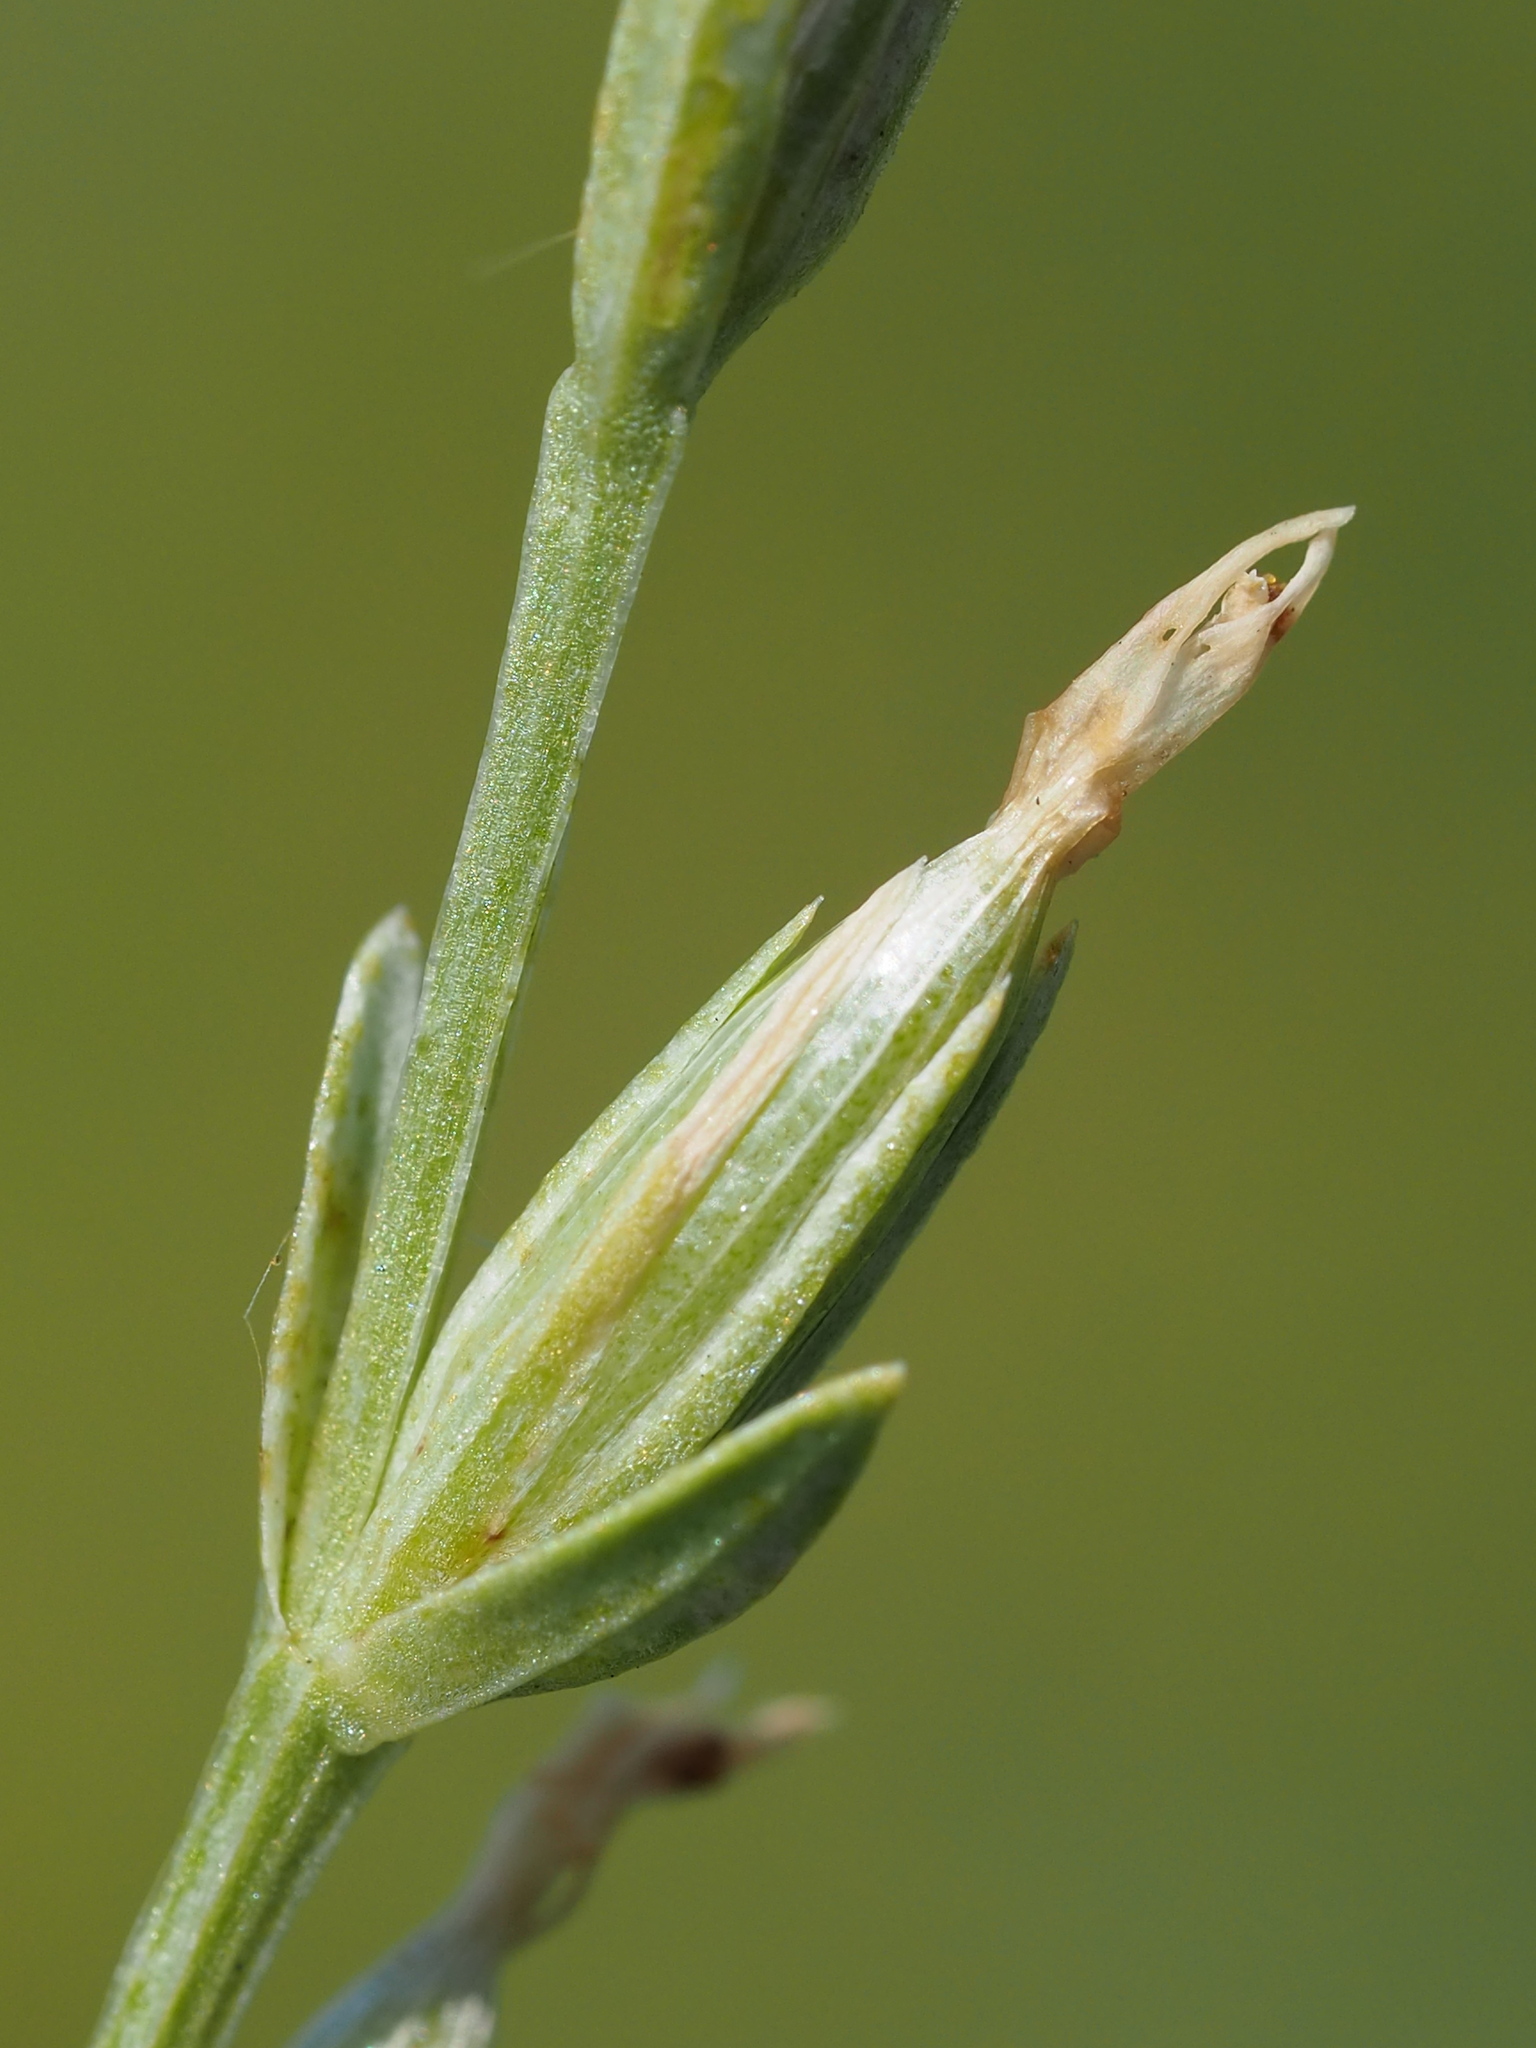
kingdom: Plantae
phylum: Tracheophyta
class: Magnoliopsida
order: Gentianales
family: Gentianaceae
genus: Schenkia
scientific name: Schenkia japonica
